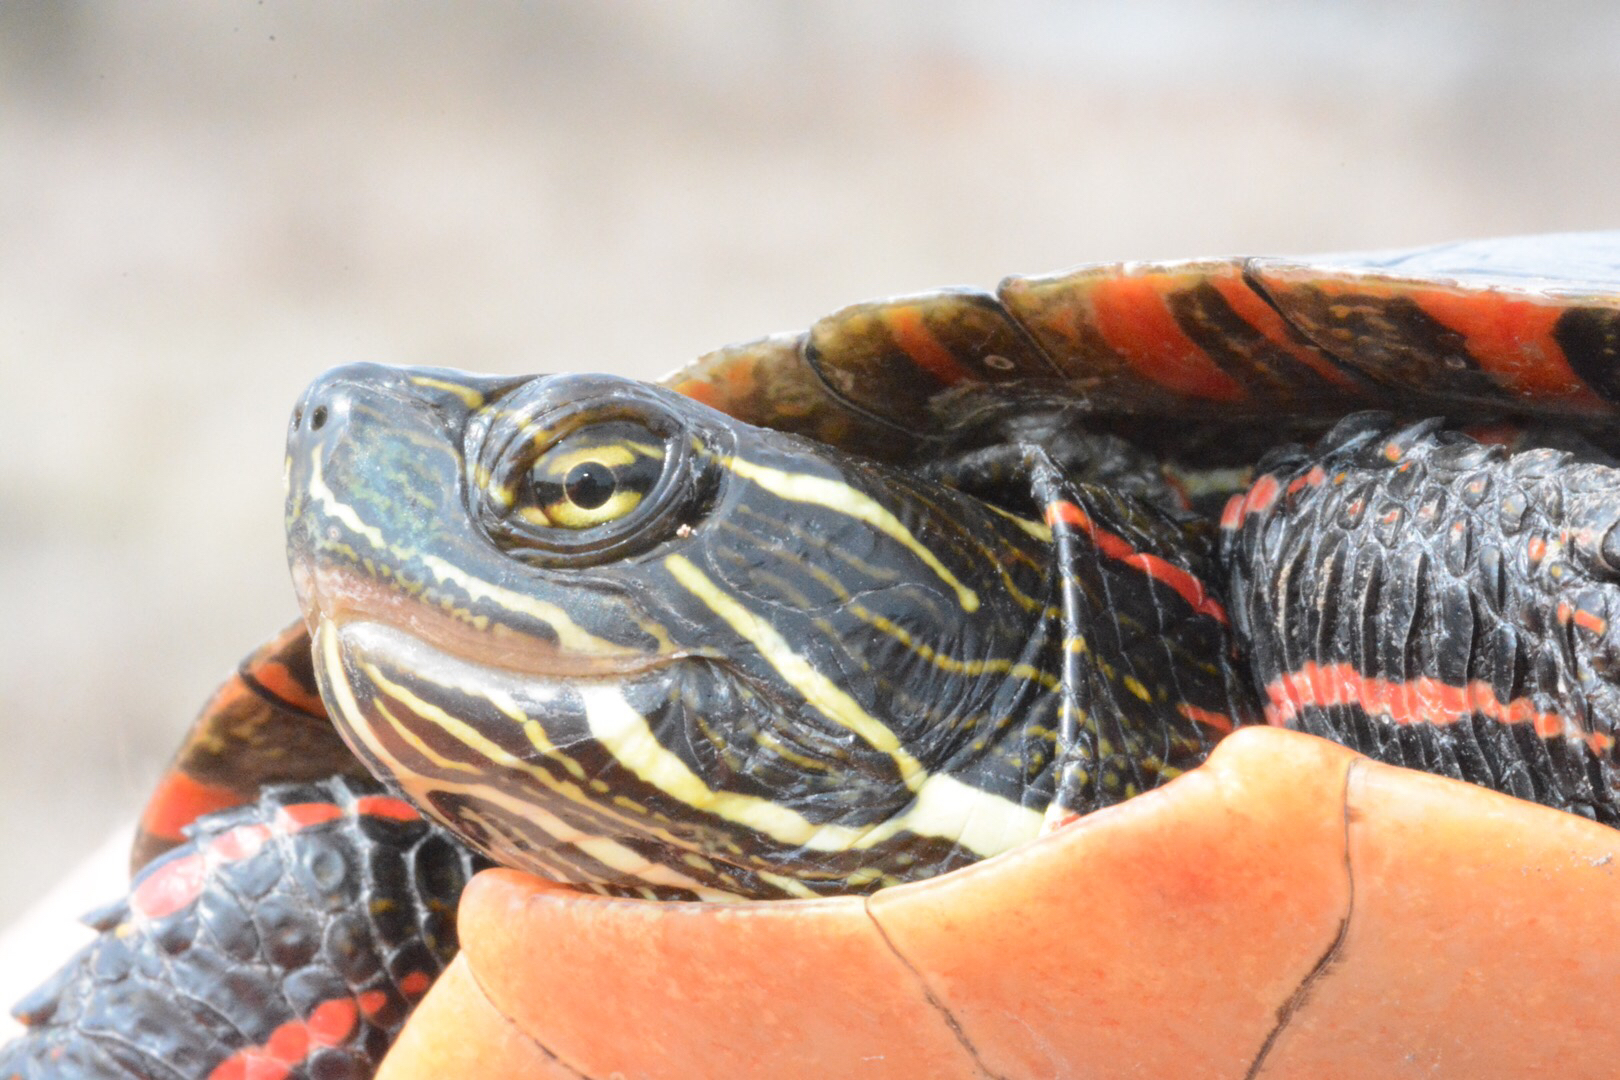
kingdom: Animalia
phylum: Chordata
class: Testudines
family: Emydidae
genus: Chrysemys
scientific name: Chrysemys picta
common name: Painted turtle
